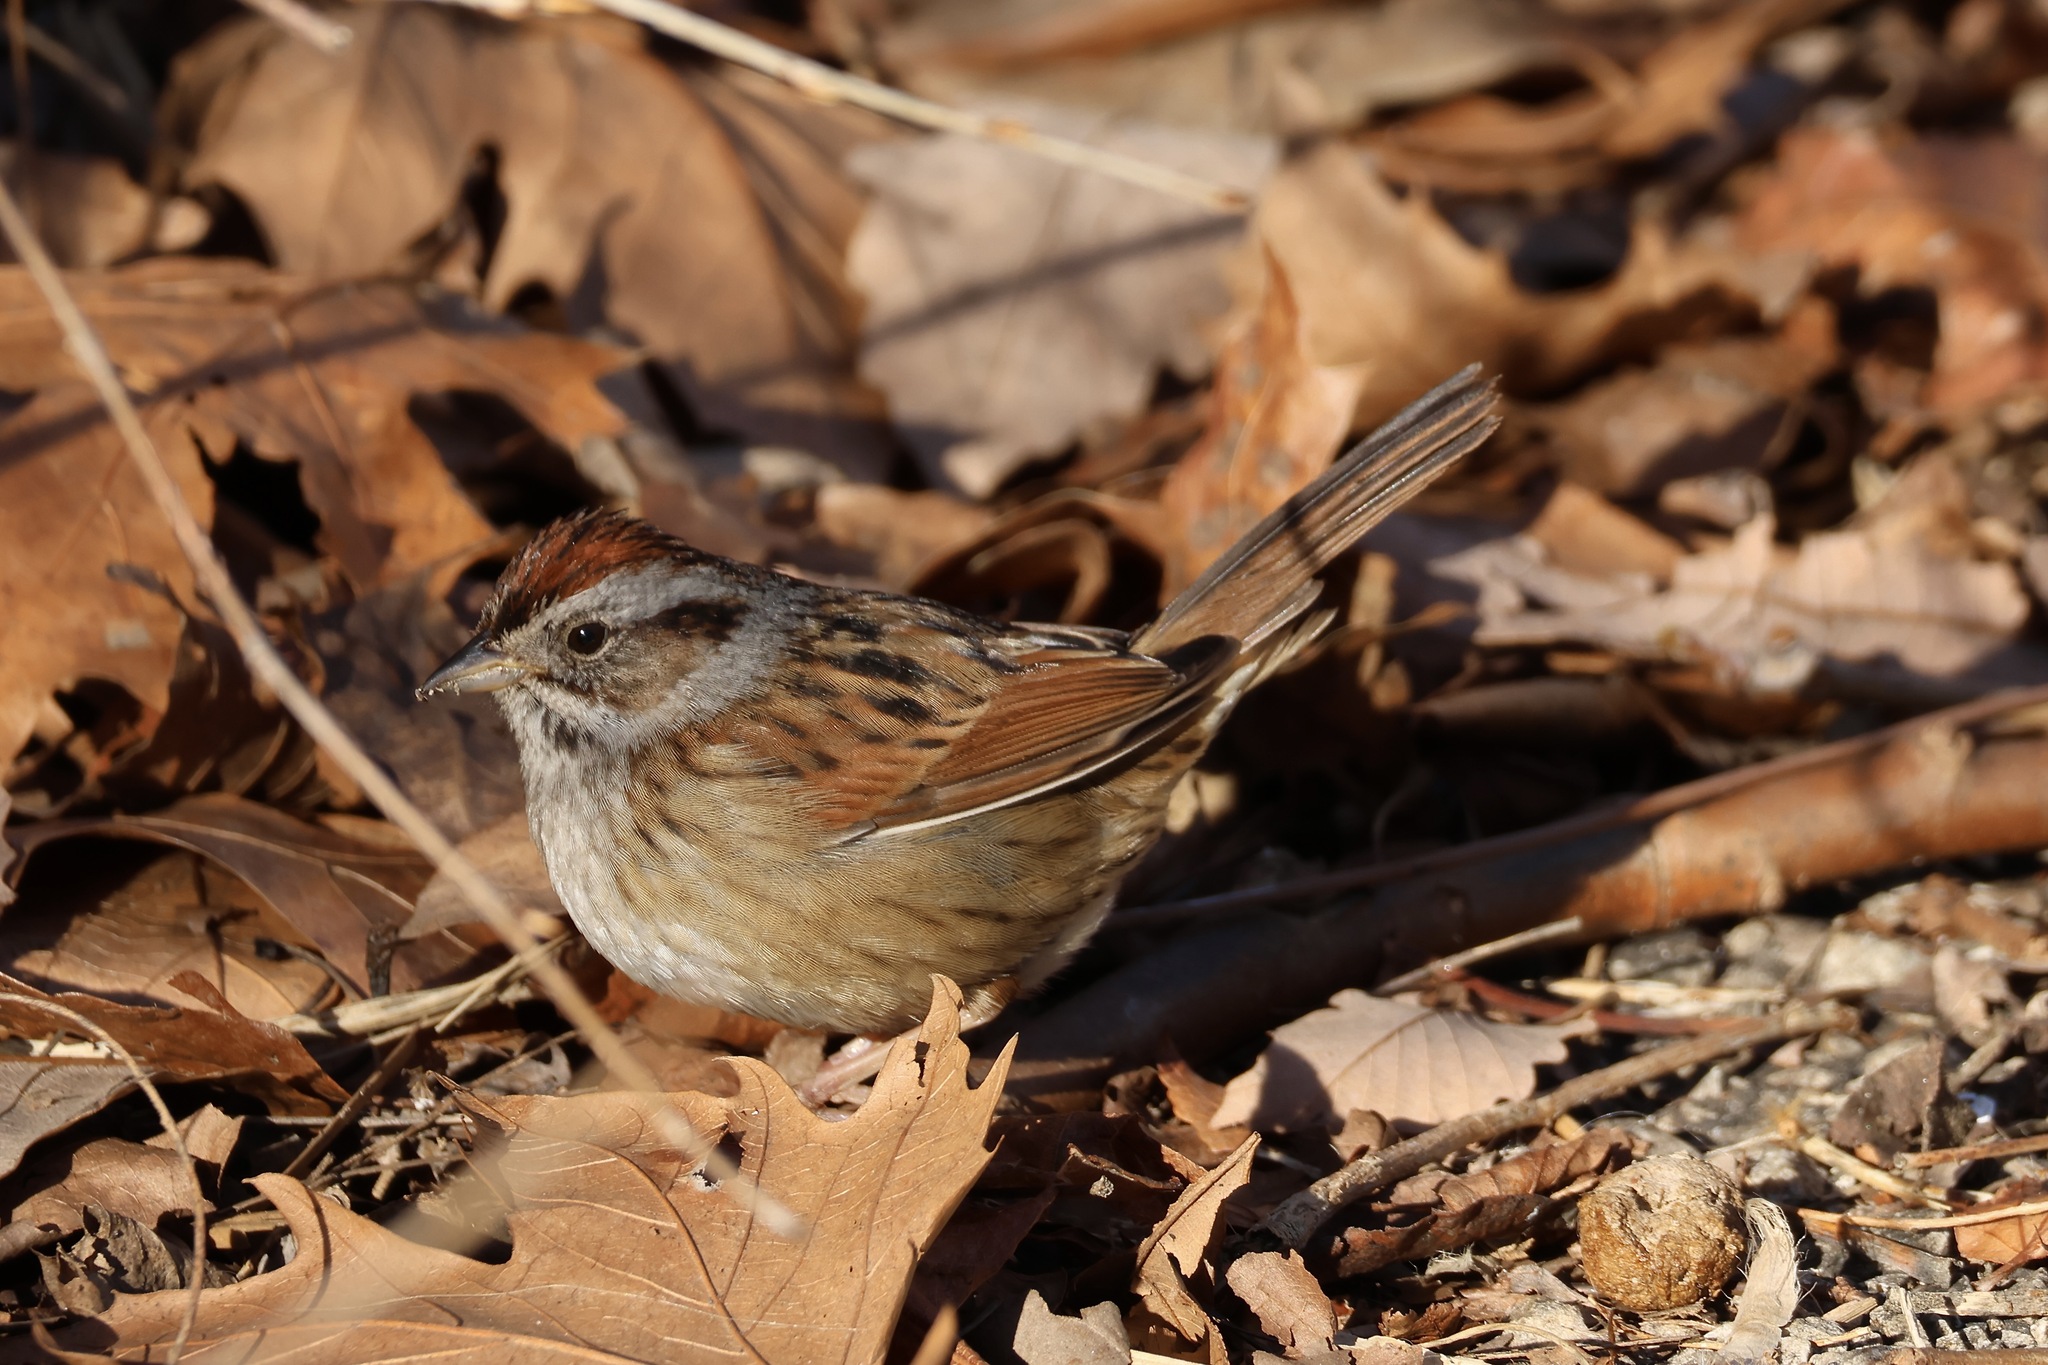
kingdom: Animalia
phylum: Chordata
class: Aves
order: Passeriformes
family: Passerellidae
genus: Melospiza
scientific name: Melospiza georgiana
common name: Swamp sparrow
